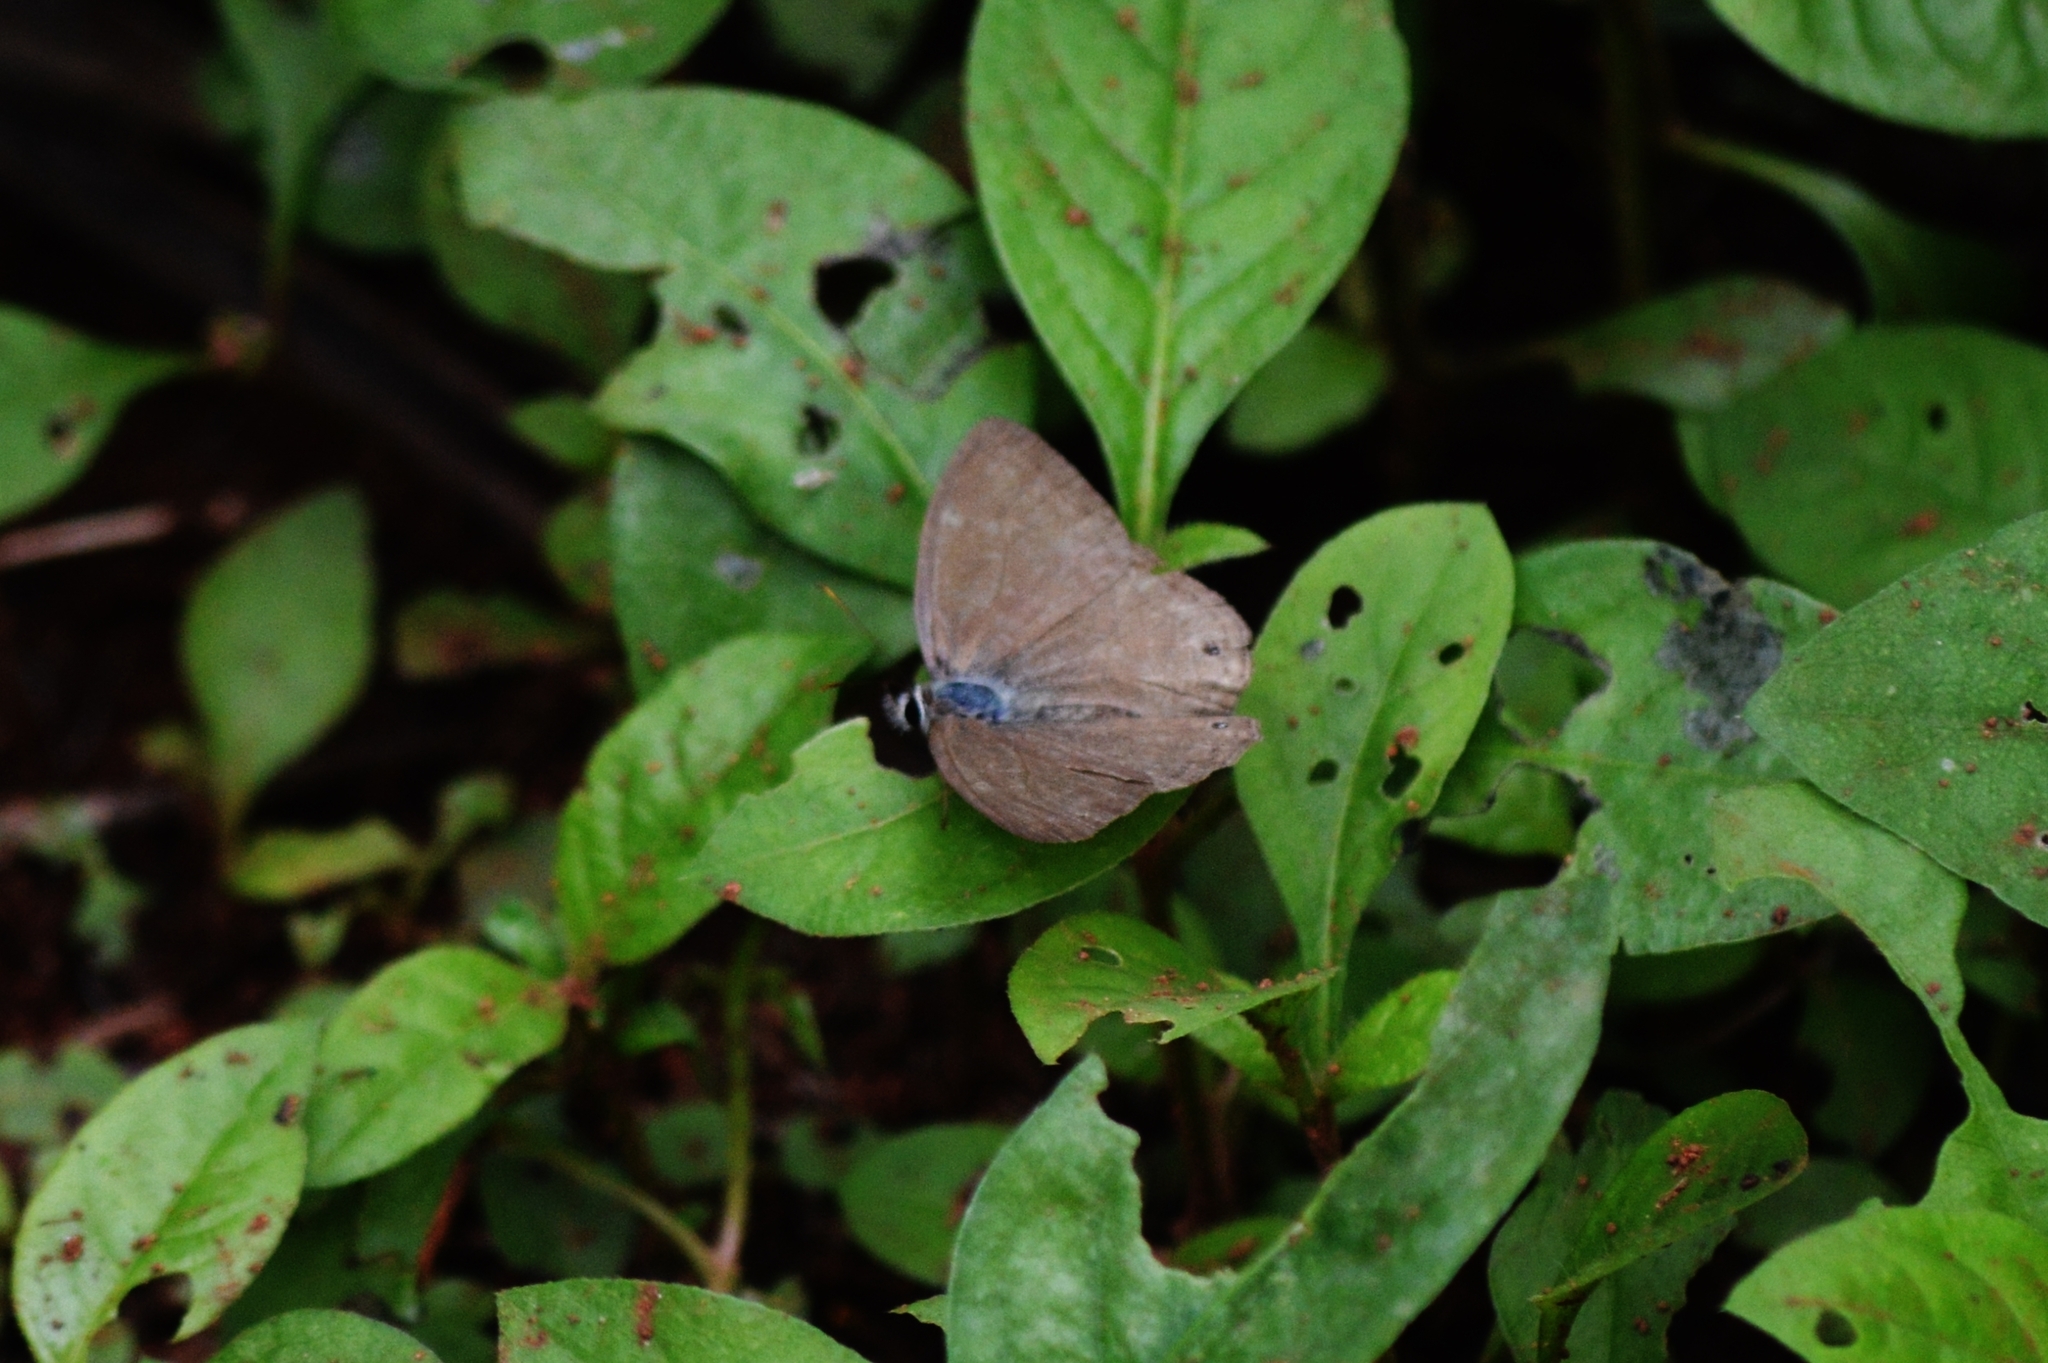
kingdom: Animalia
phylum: Arthropoda
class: Insecta
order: Lepidoptera
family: Nymphalidae
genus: Euptychiina
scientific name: Euptychiina
